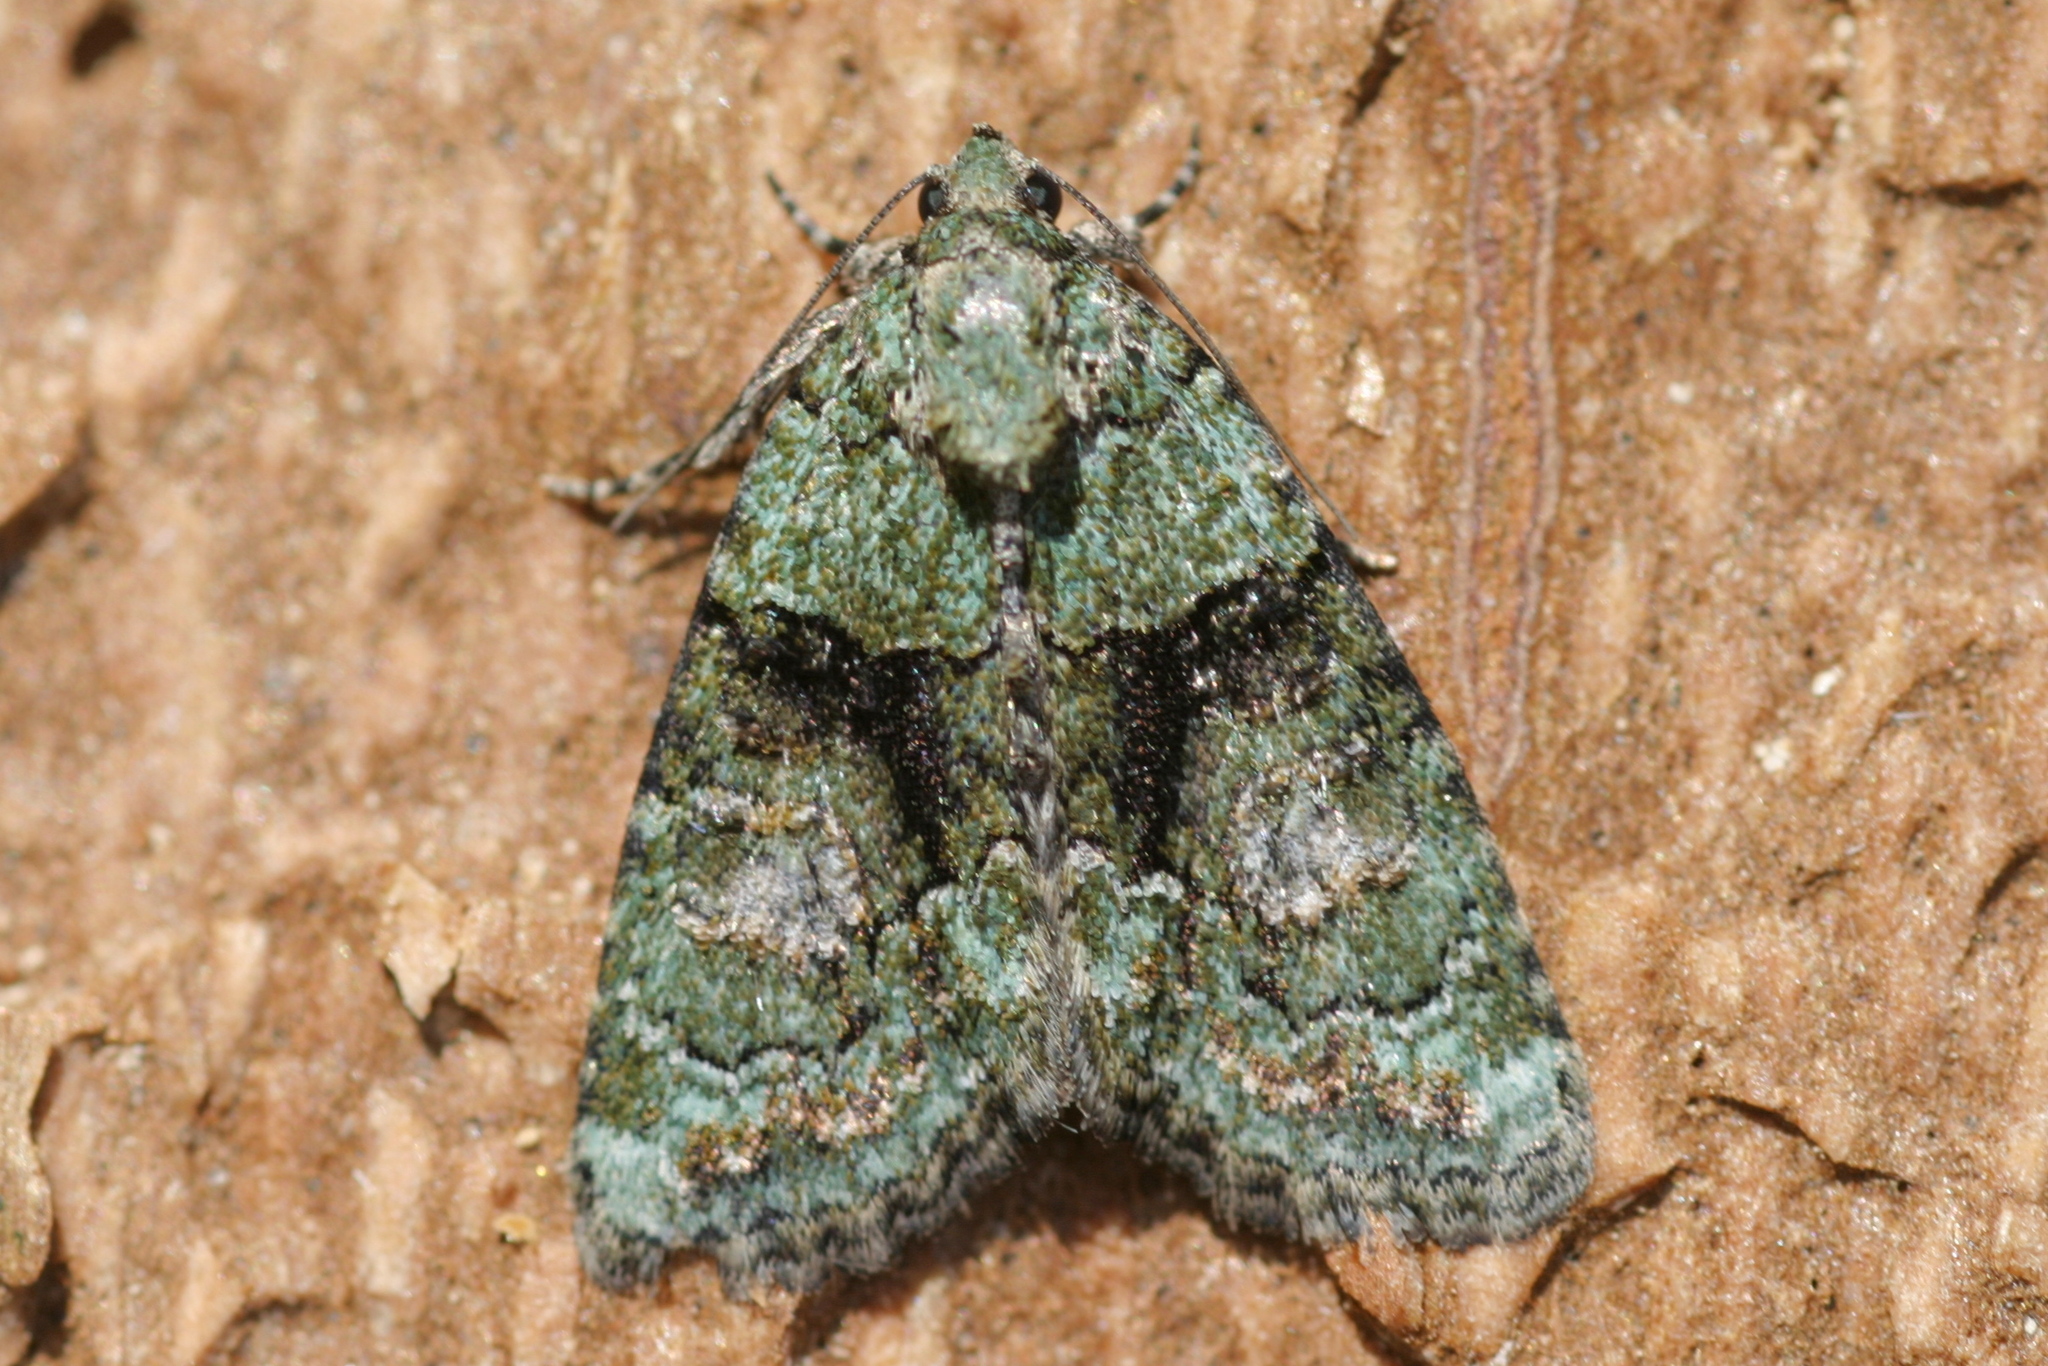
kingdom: Animalia
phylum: Arthropoda
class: Insecta
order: Lepidoptera
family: Noctuidae
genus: Cryphia
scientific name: Cryphia algae
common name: Tree-lichen beauty
